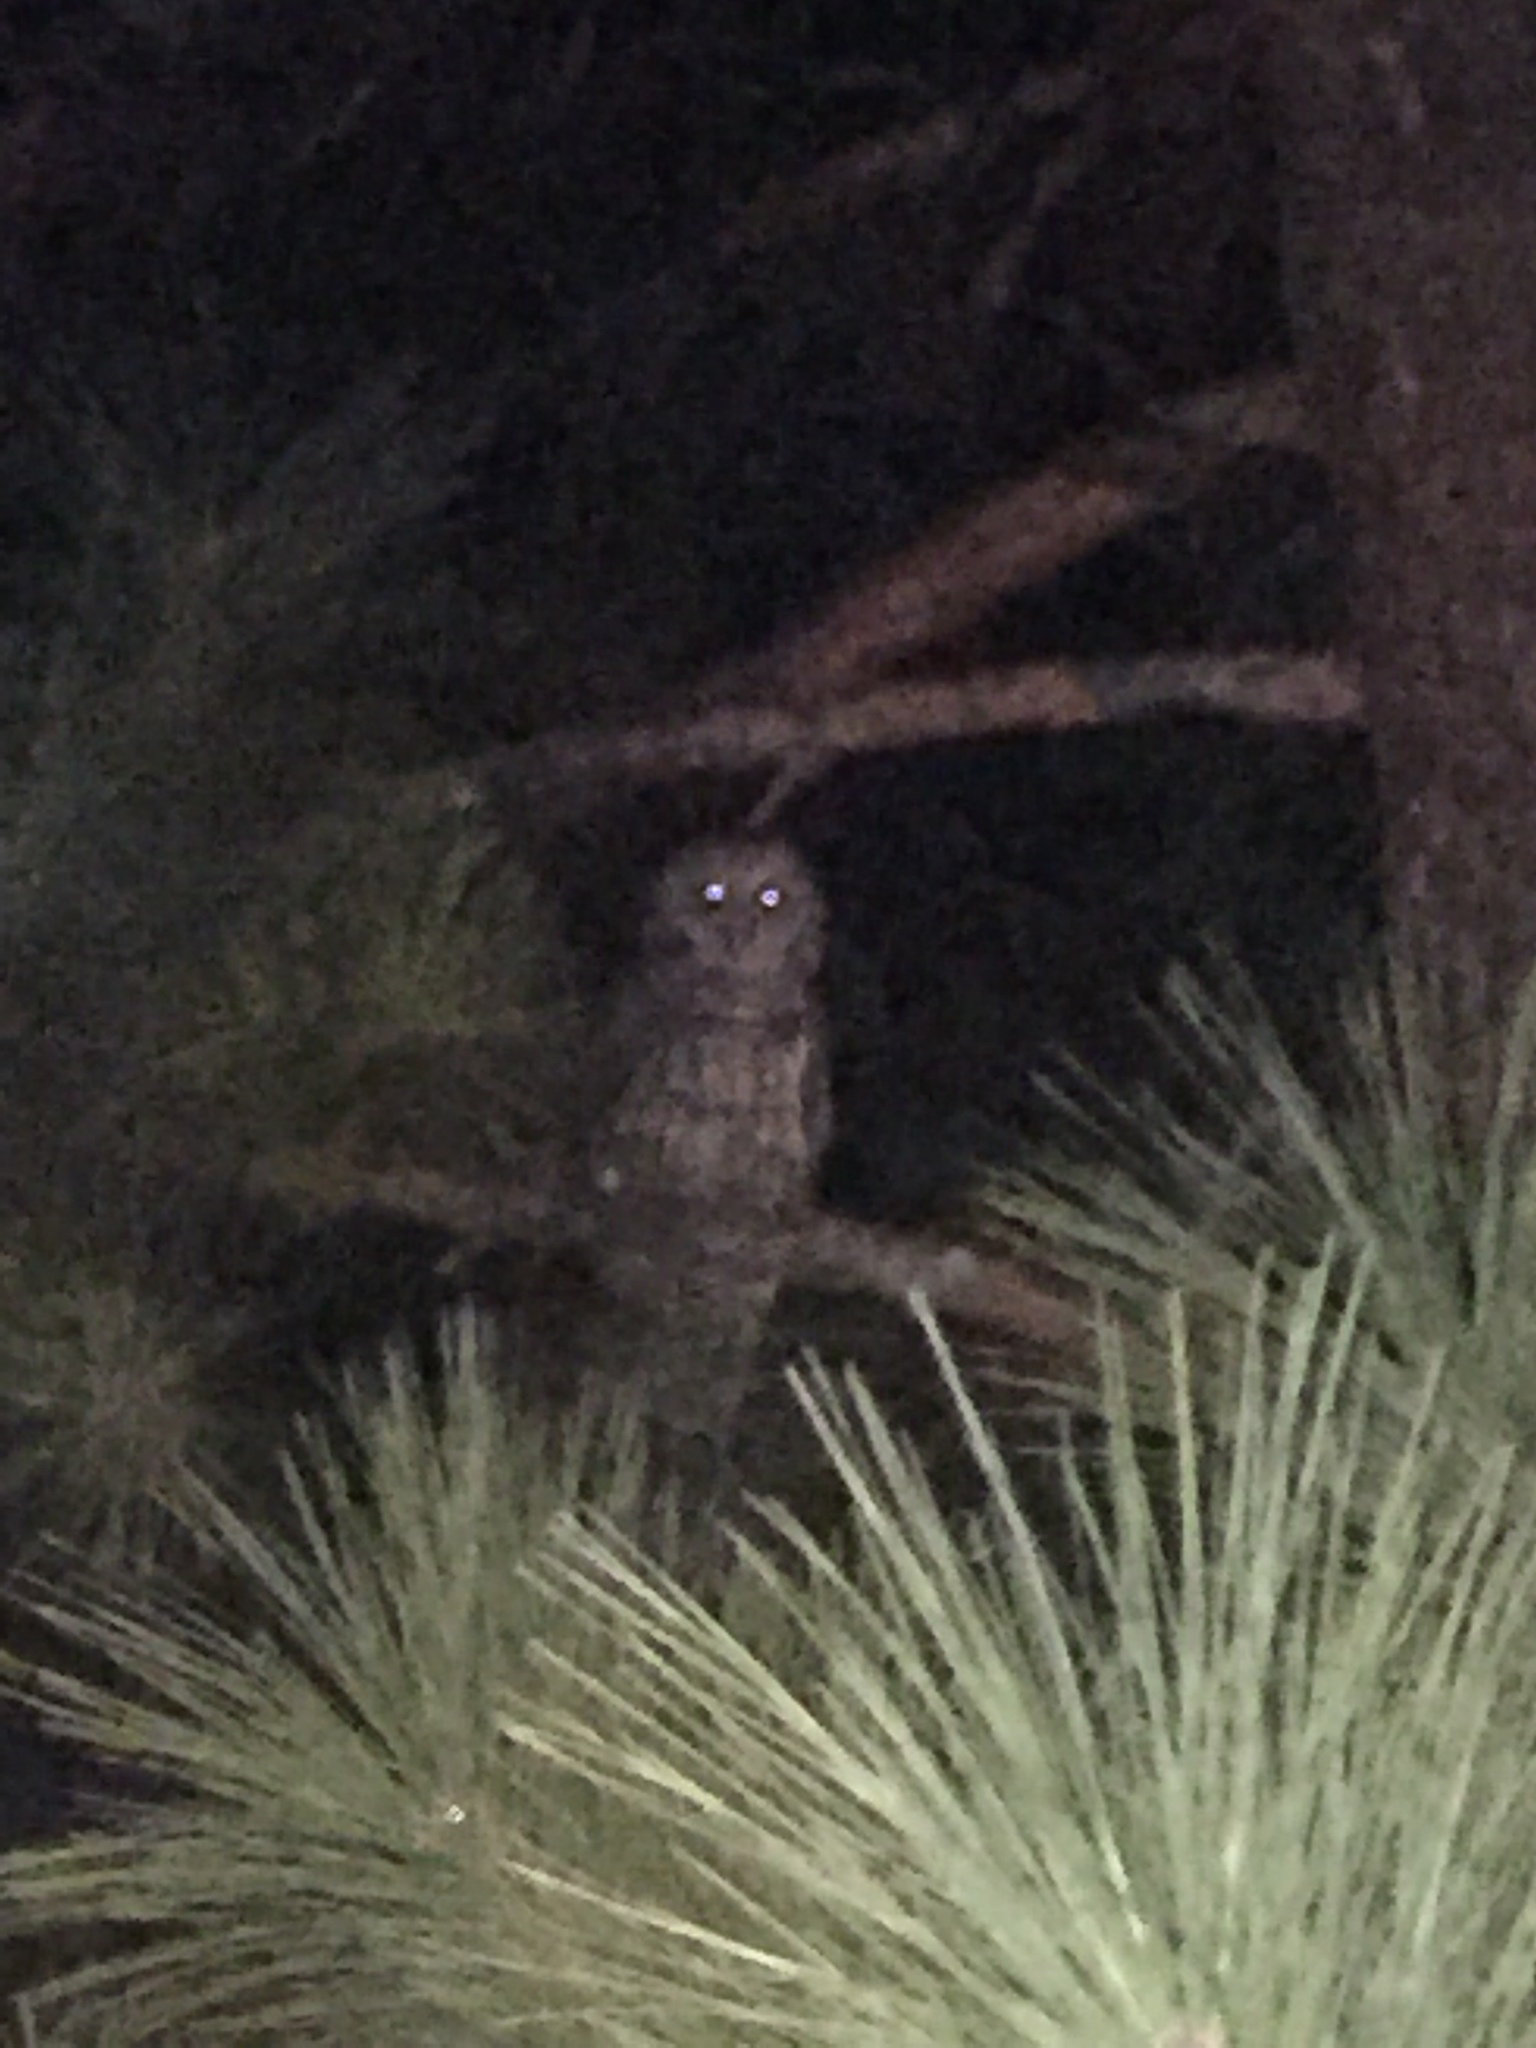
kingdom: Animalia
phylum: Chordata
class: Aves
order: Strigiformes
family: Strigidae
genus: Strix
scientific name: Strix varia
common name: Barred owl
